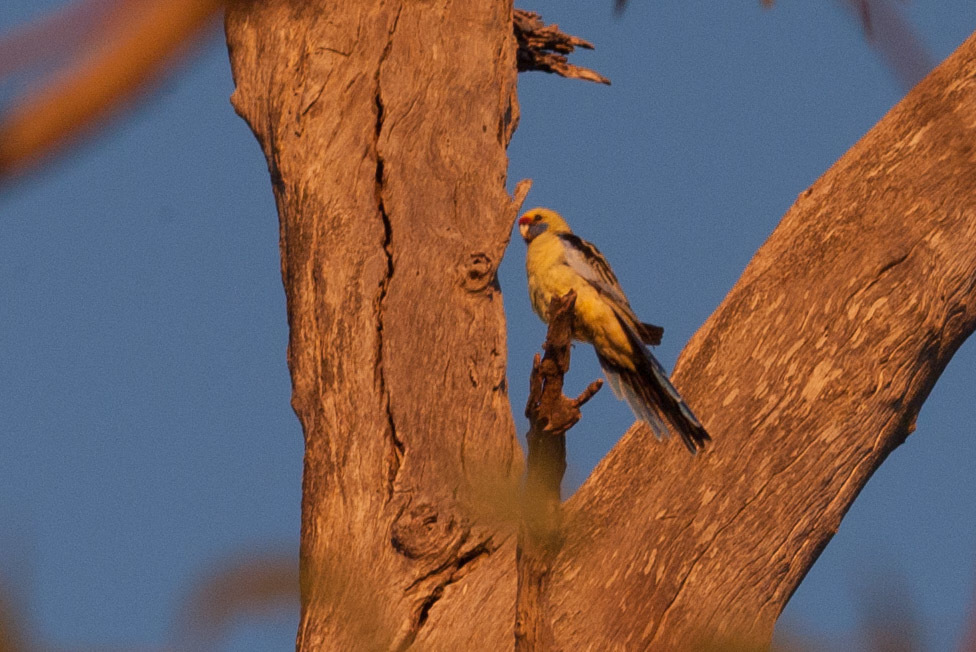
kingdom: Animalia
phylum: Chordata
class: Aves
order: Psittaciformes
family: Psittacidae
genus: Platycercus
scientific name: Platycercus elegans
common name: Crimson rosella
